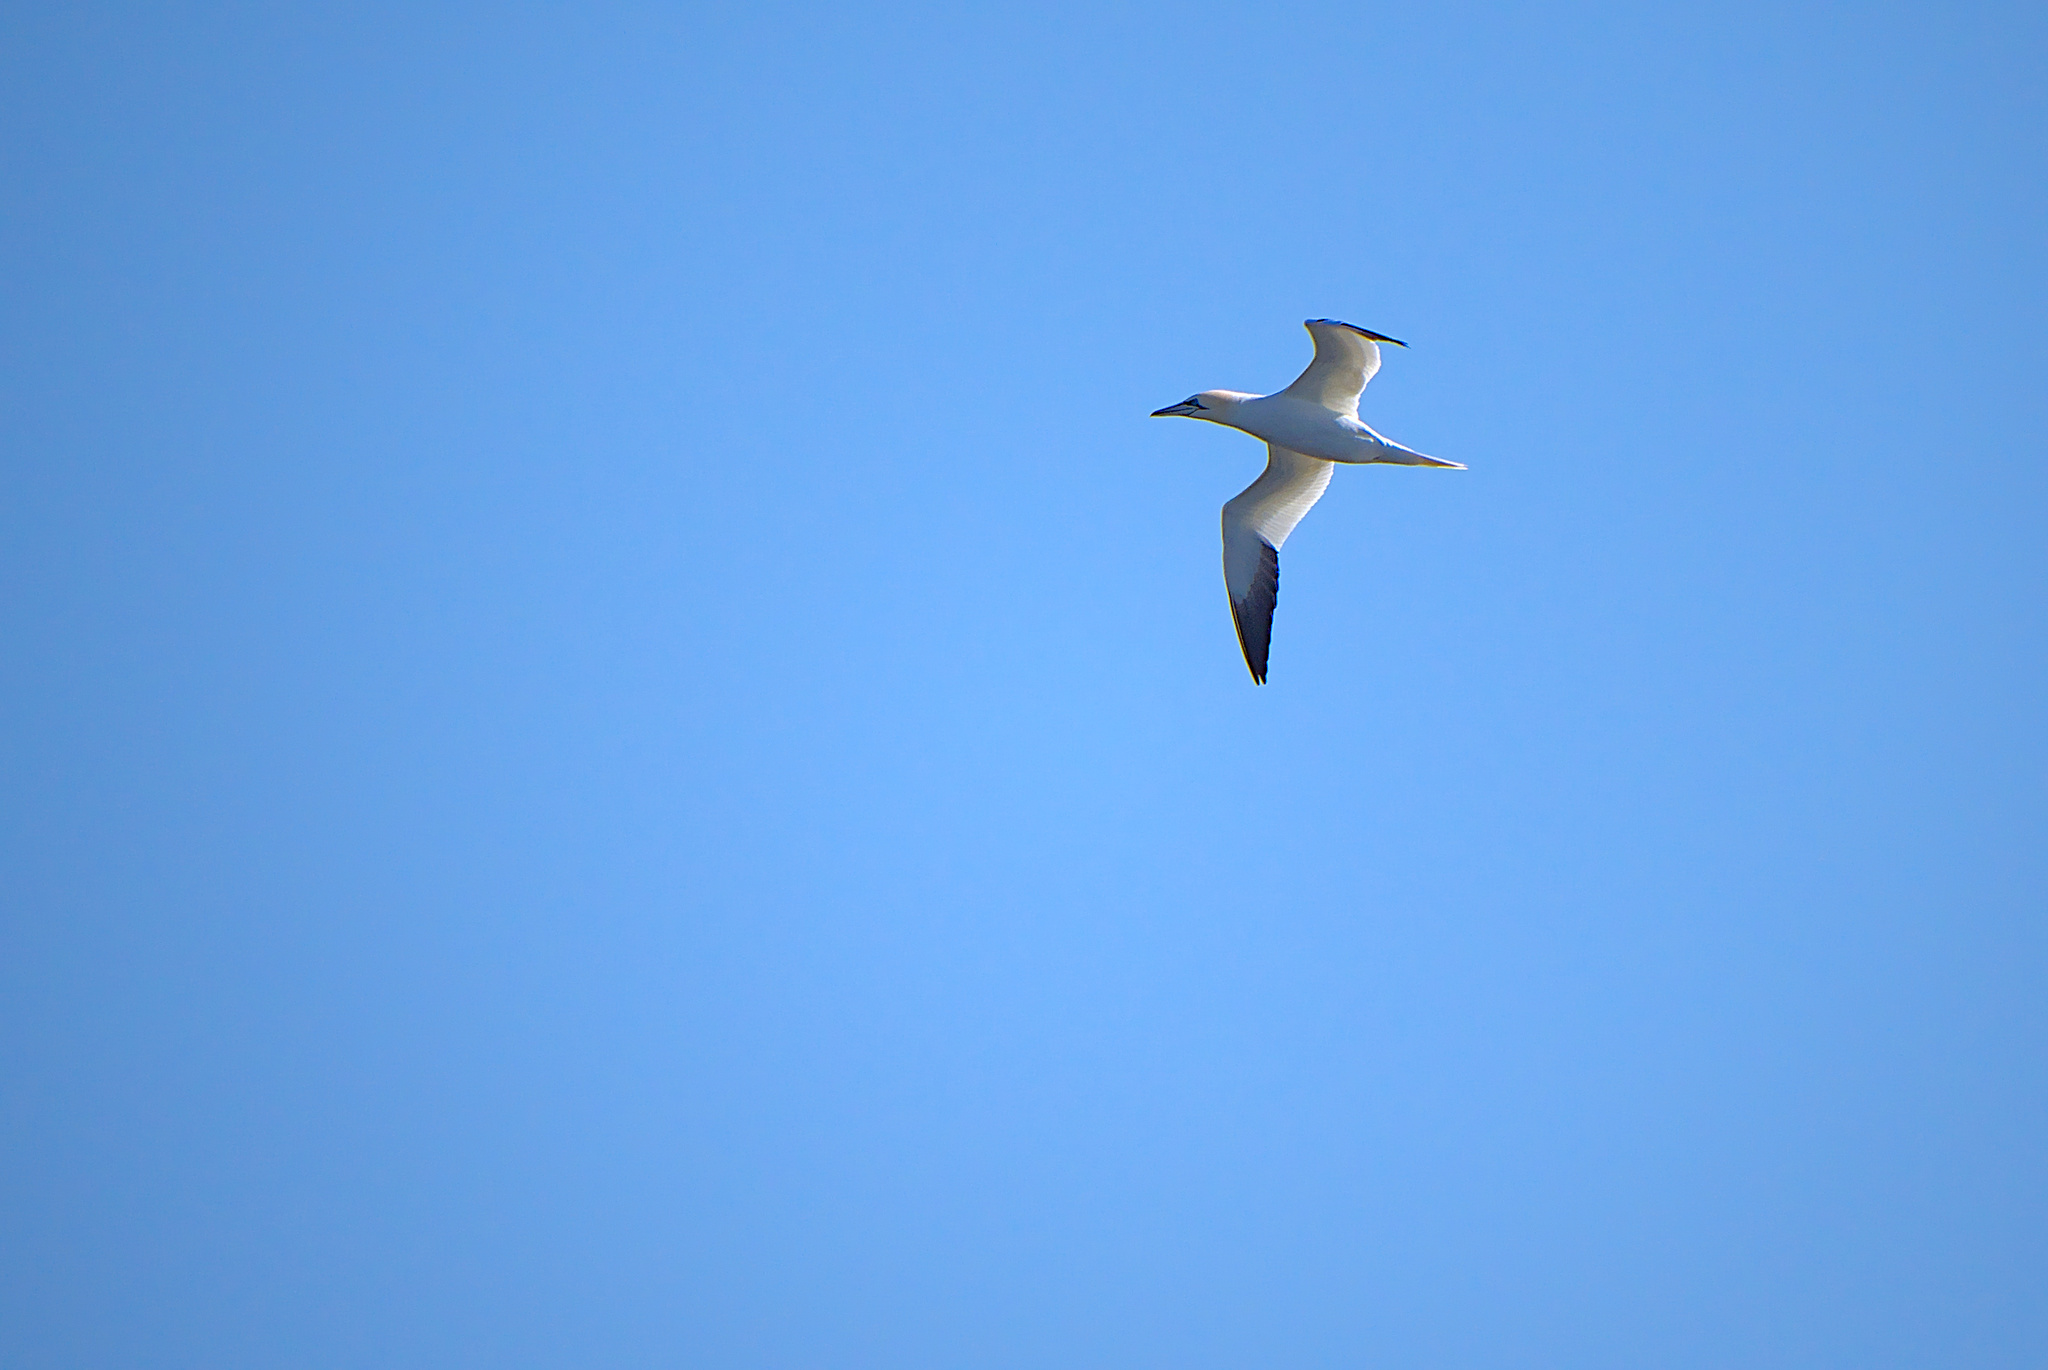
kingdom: Animalia
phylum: Chordata
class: Aves
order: Suliformes
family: Sulidae
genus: Morus
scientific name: Morus bassanus
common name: Northern gannet
